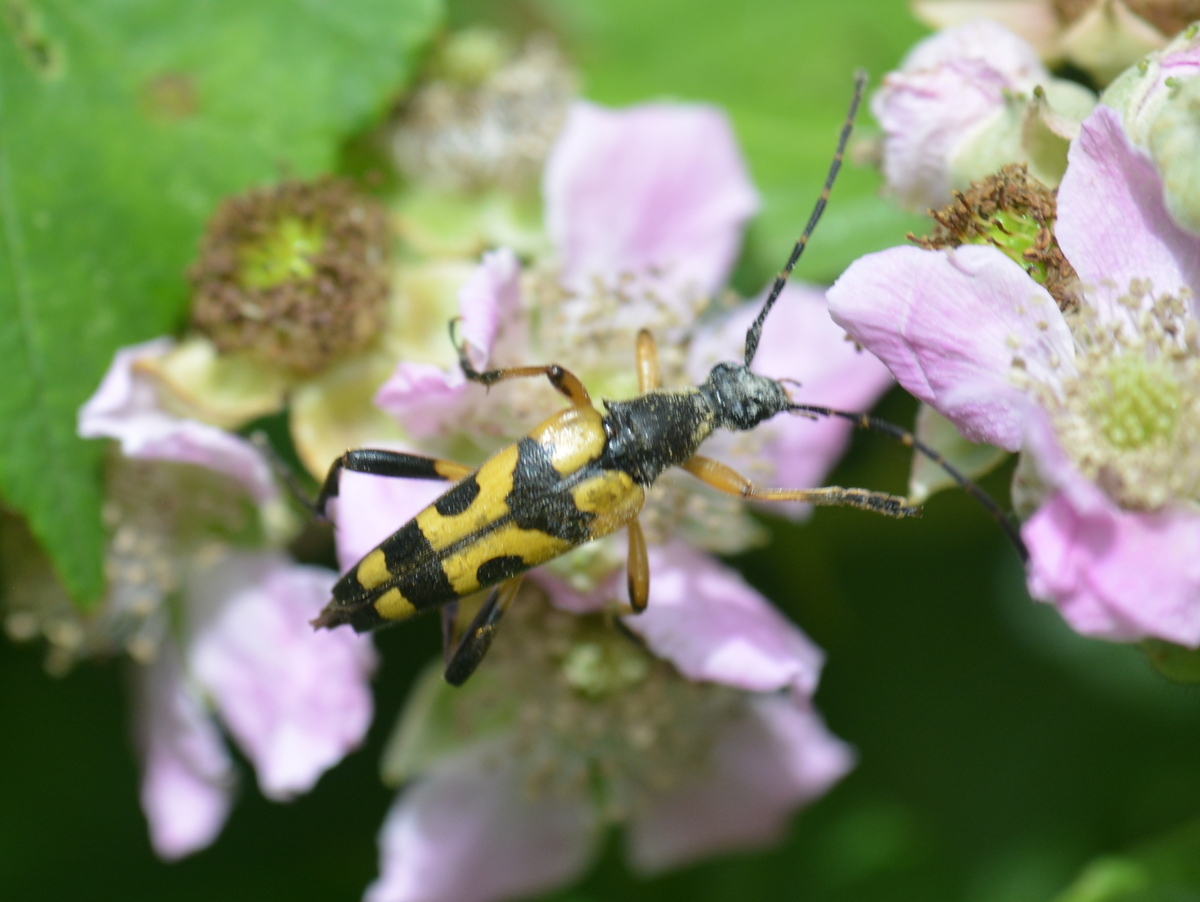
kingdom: Animalia
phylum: Arthropoda
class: Insecta
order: Coleoptera
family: Cerambycidae
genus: Rutpela
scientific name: Rutpela maculata
